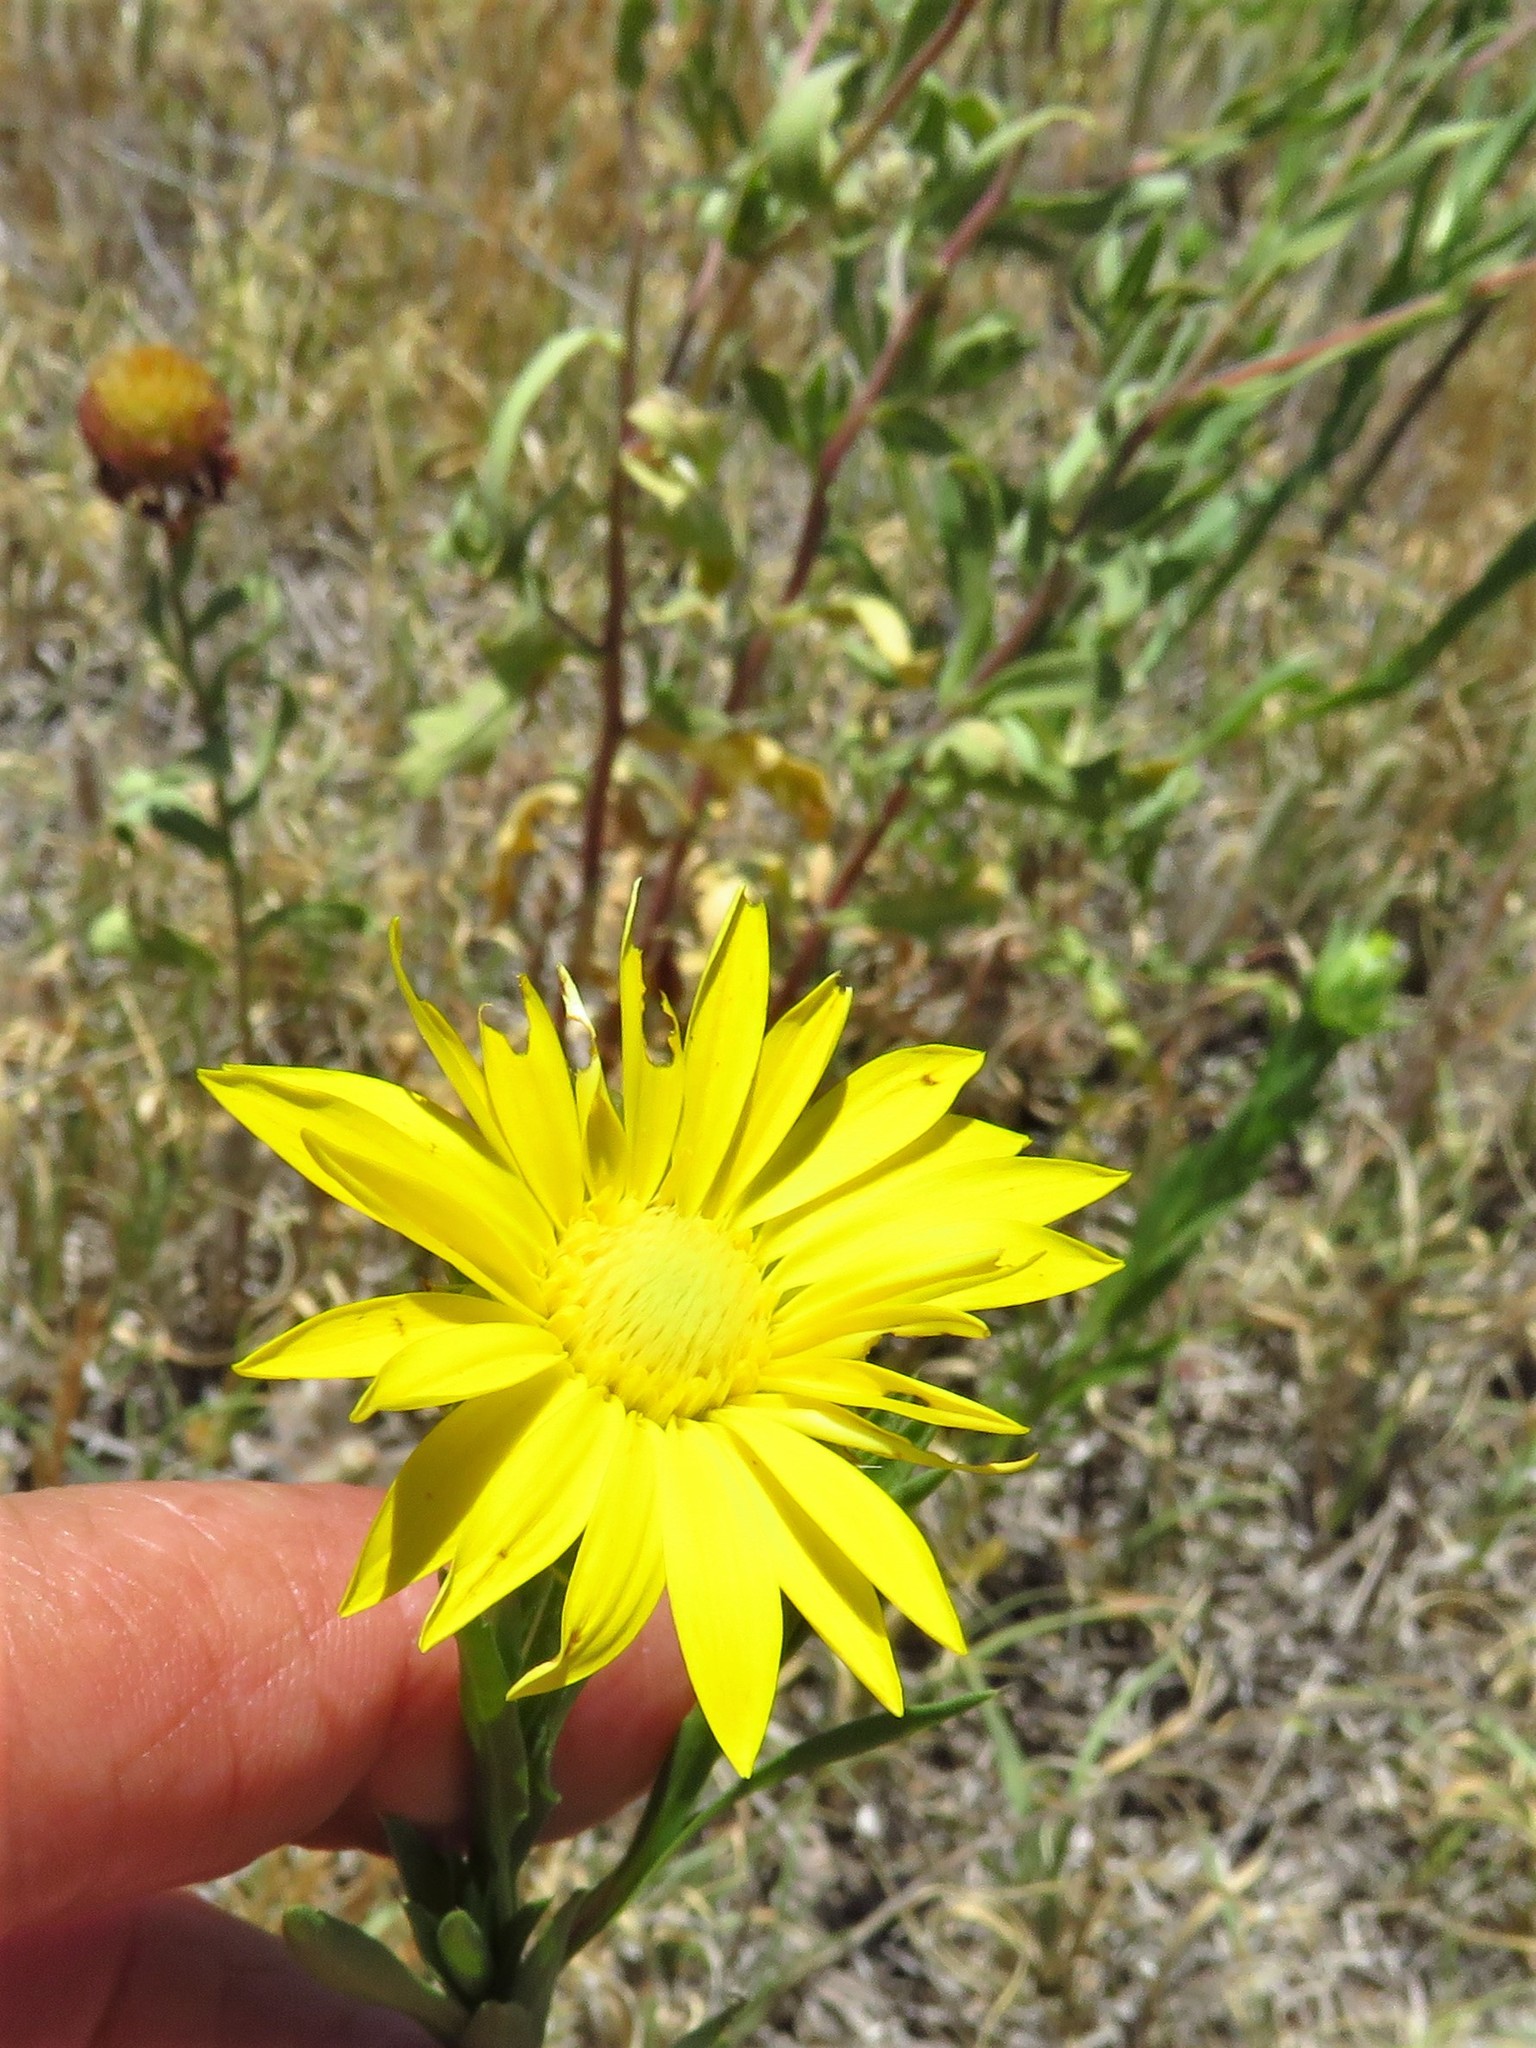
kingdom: Plantae
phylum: Tracheophyta
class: Magnoliopsida
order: Asterales
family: Asteraceae
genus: Xanthisma
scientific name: Xanthisma texanum
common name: Texas sleepy daisy
